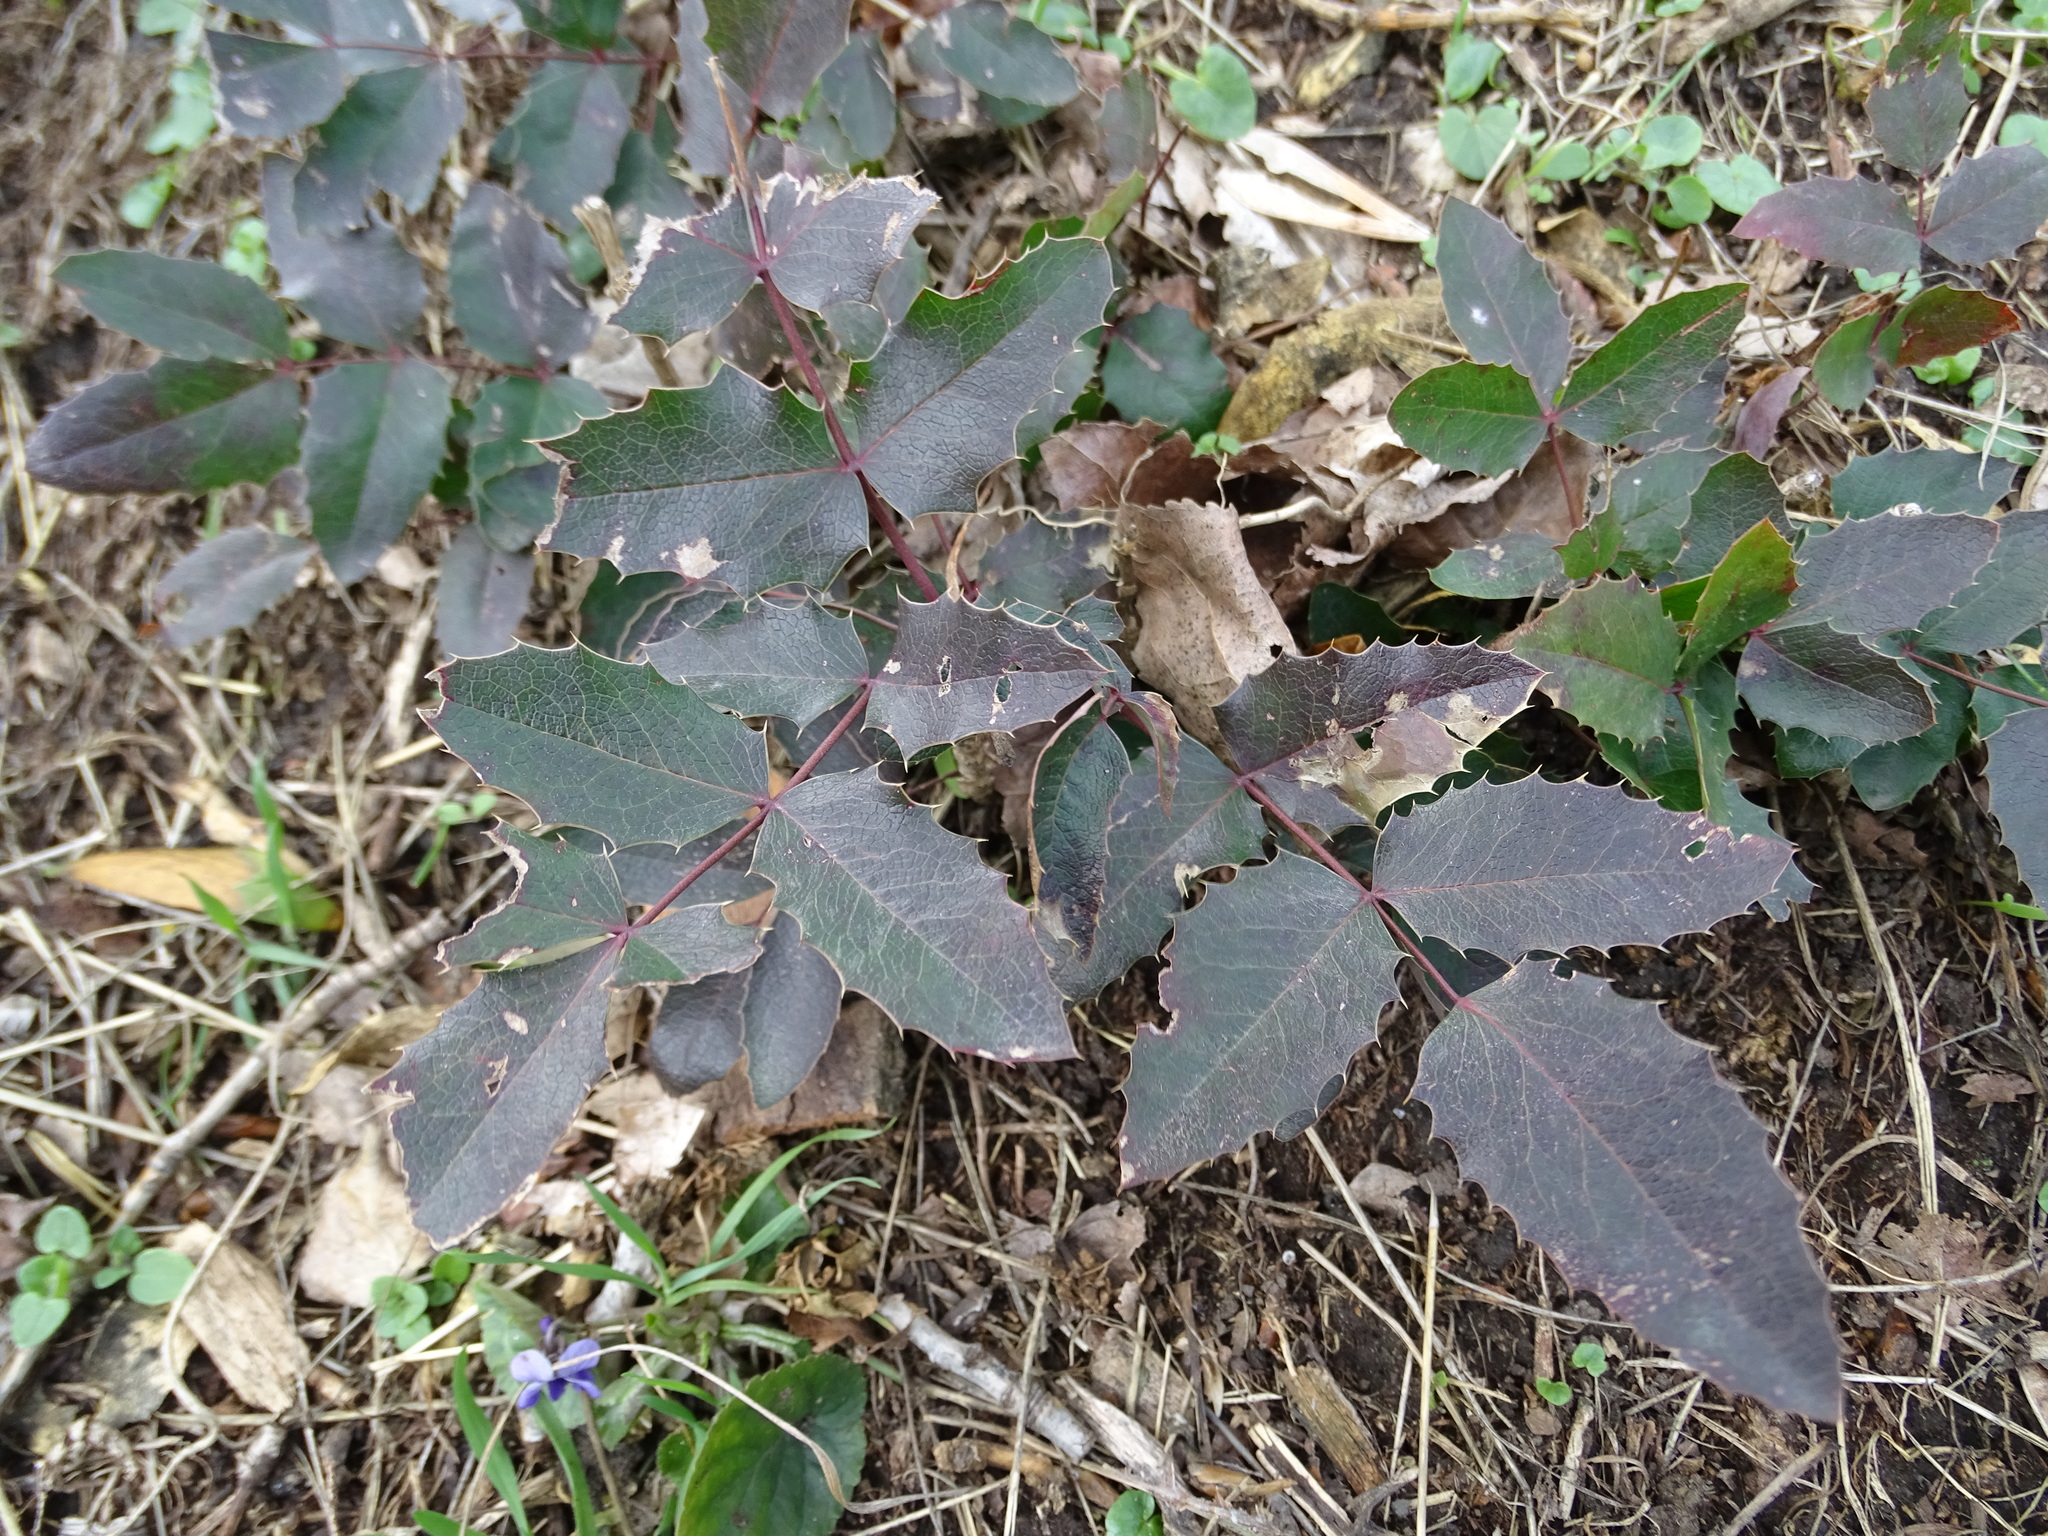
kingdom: Plantae
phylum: Tracheophyta
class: Magnoliopsida
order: Ranunculales
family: Berberidaceae
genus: Mahonia
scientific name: Mahonia aquifolium
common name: Oregon-grape
